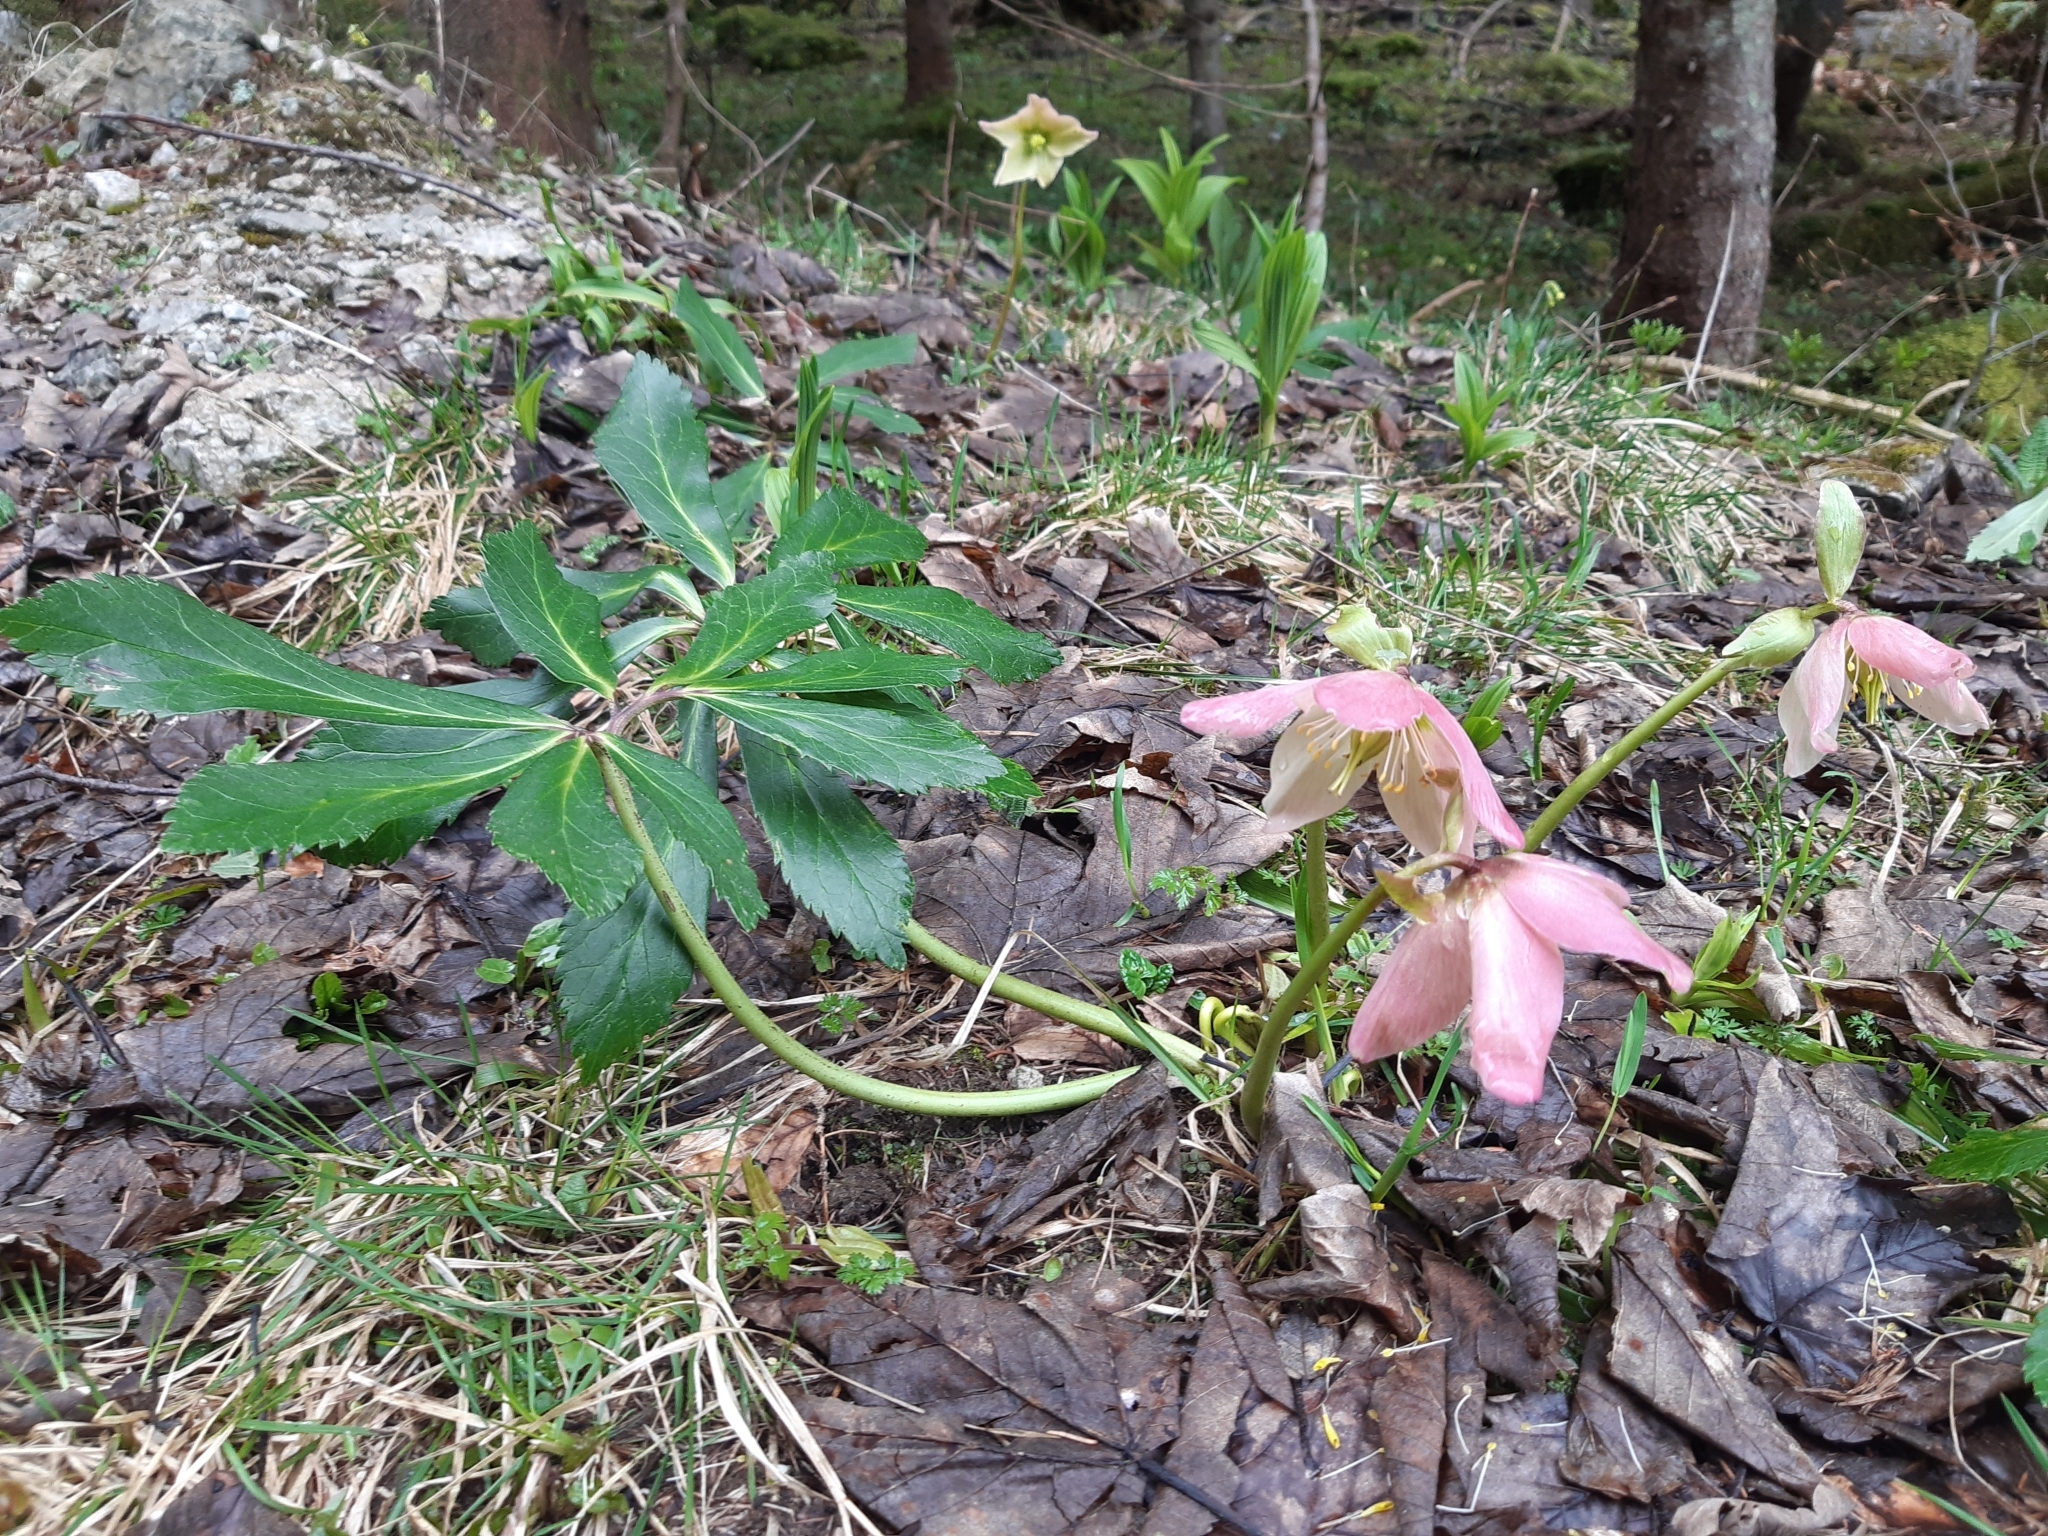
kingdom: Plantae
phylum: Tracheophyta
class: Magnoliopsida
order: Ranunculales
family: Ranunculaceae
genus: Helleborus
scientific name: Helleborus niger
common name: Black hellebore
